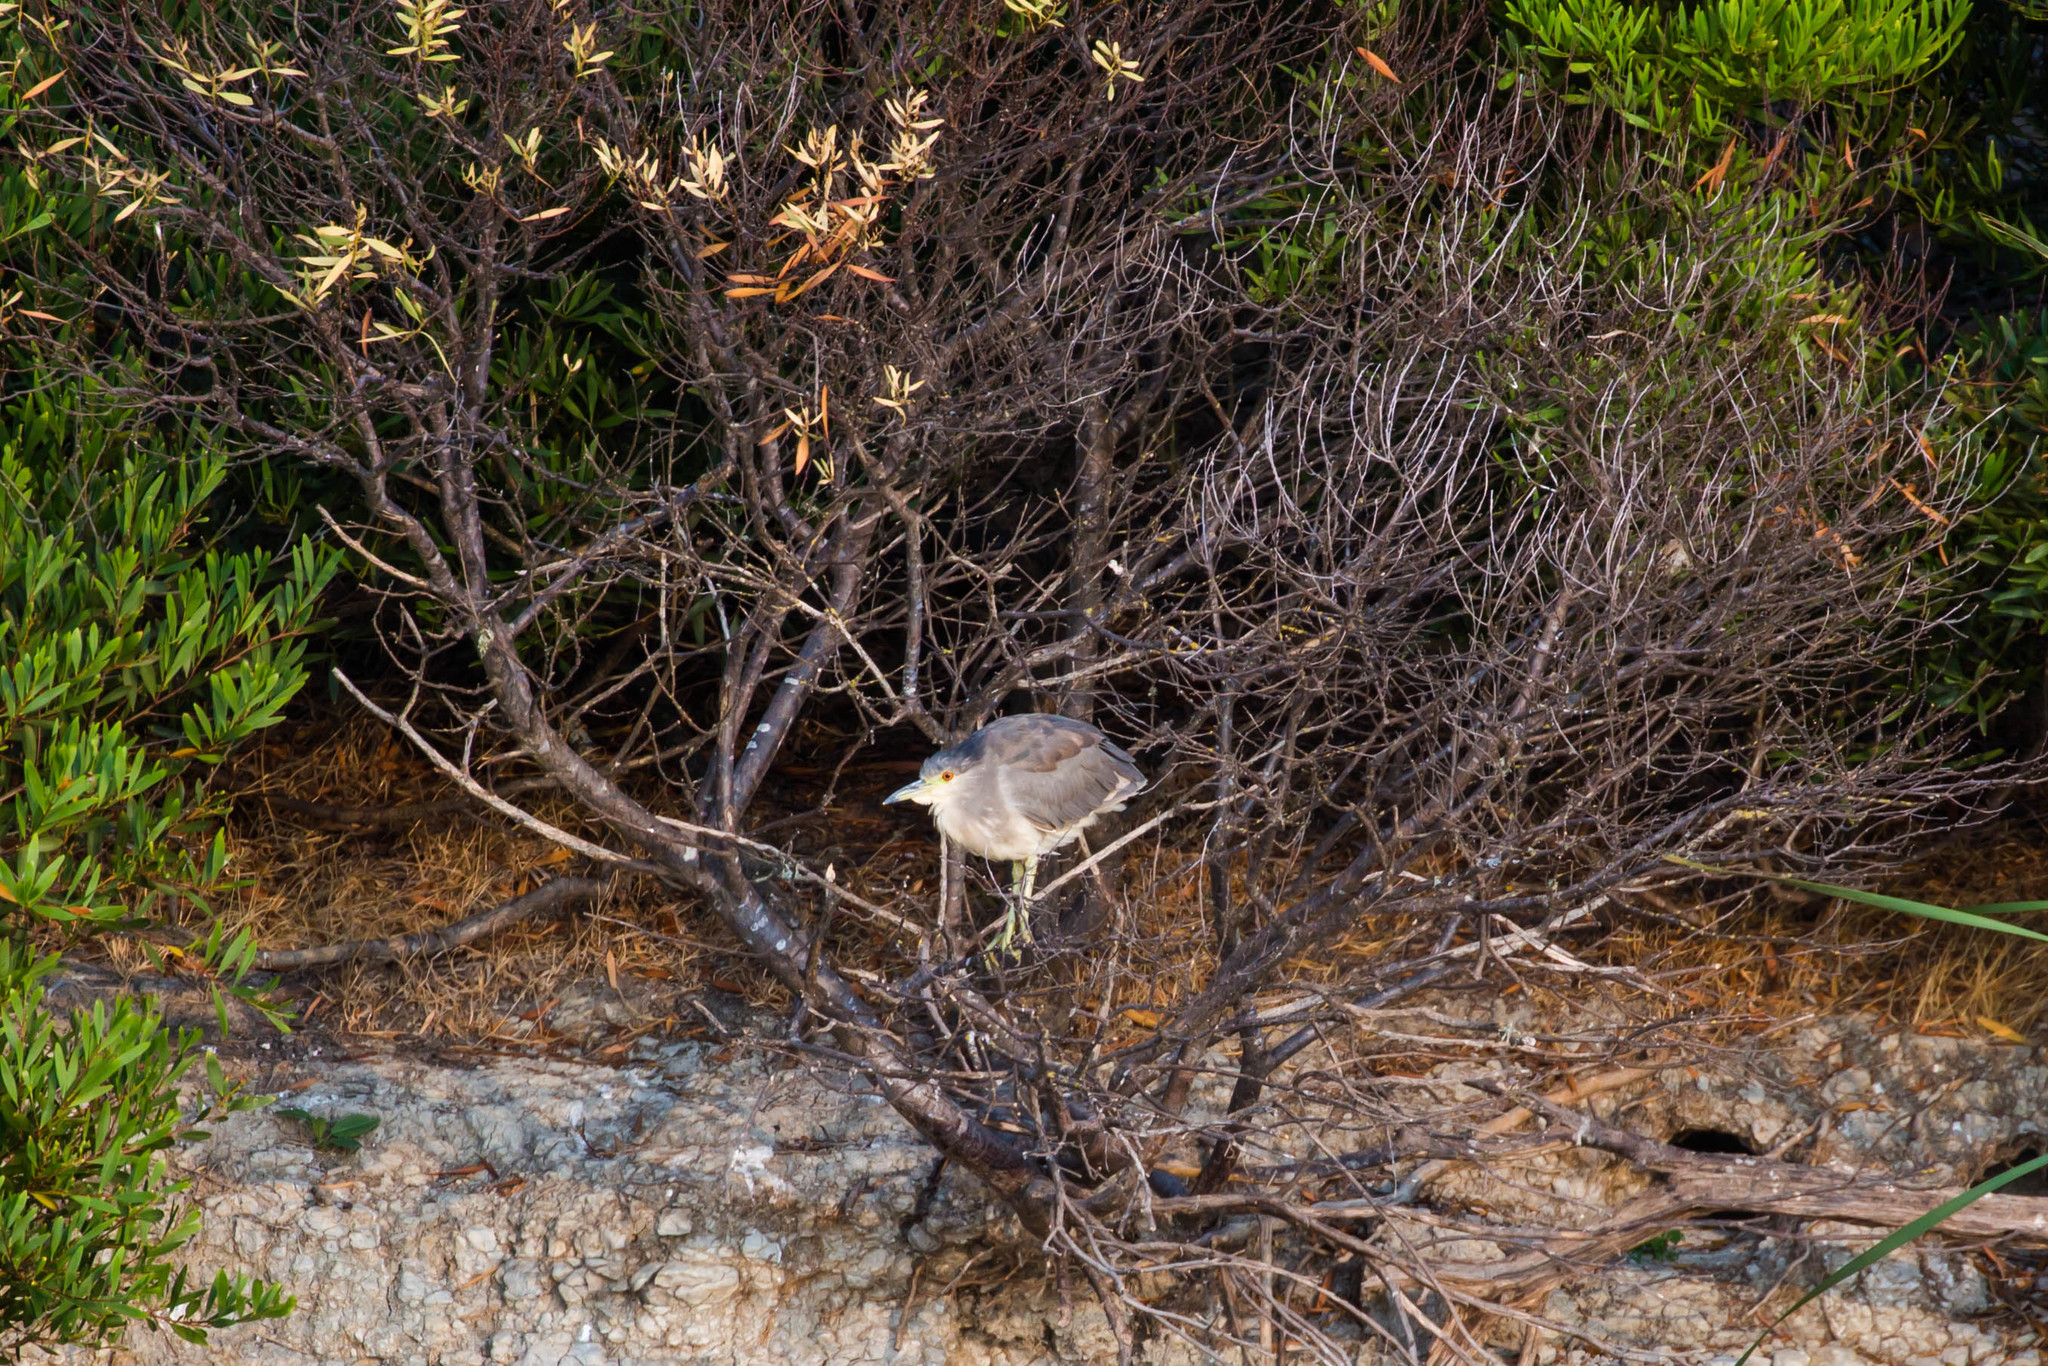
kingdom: Animalia
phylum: Chordata
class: Aves
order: Pelecaniformes
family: Ardeidae
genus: Nycticorax
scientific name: Nycticorax nycticorax
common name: Black-crowned night heron
